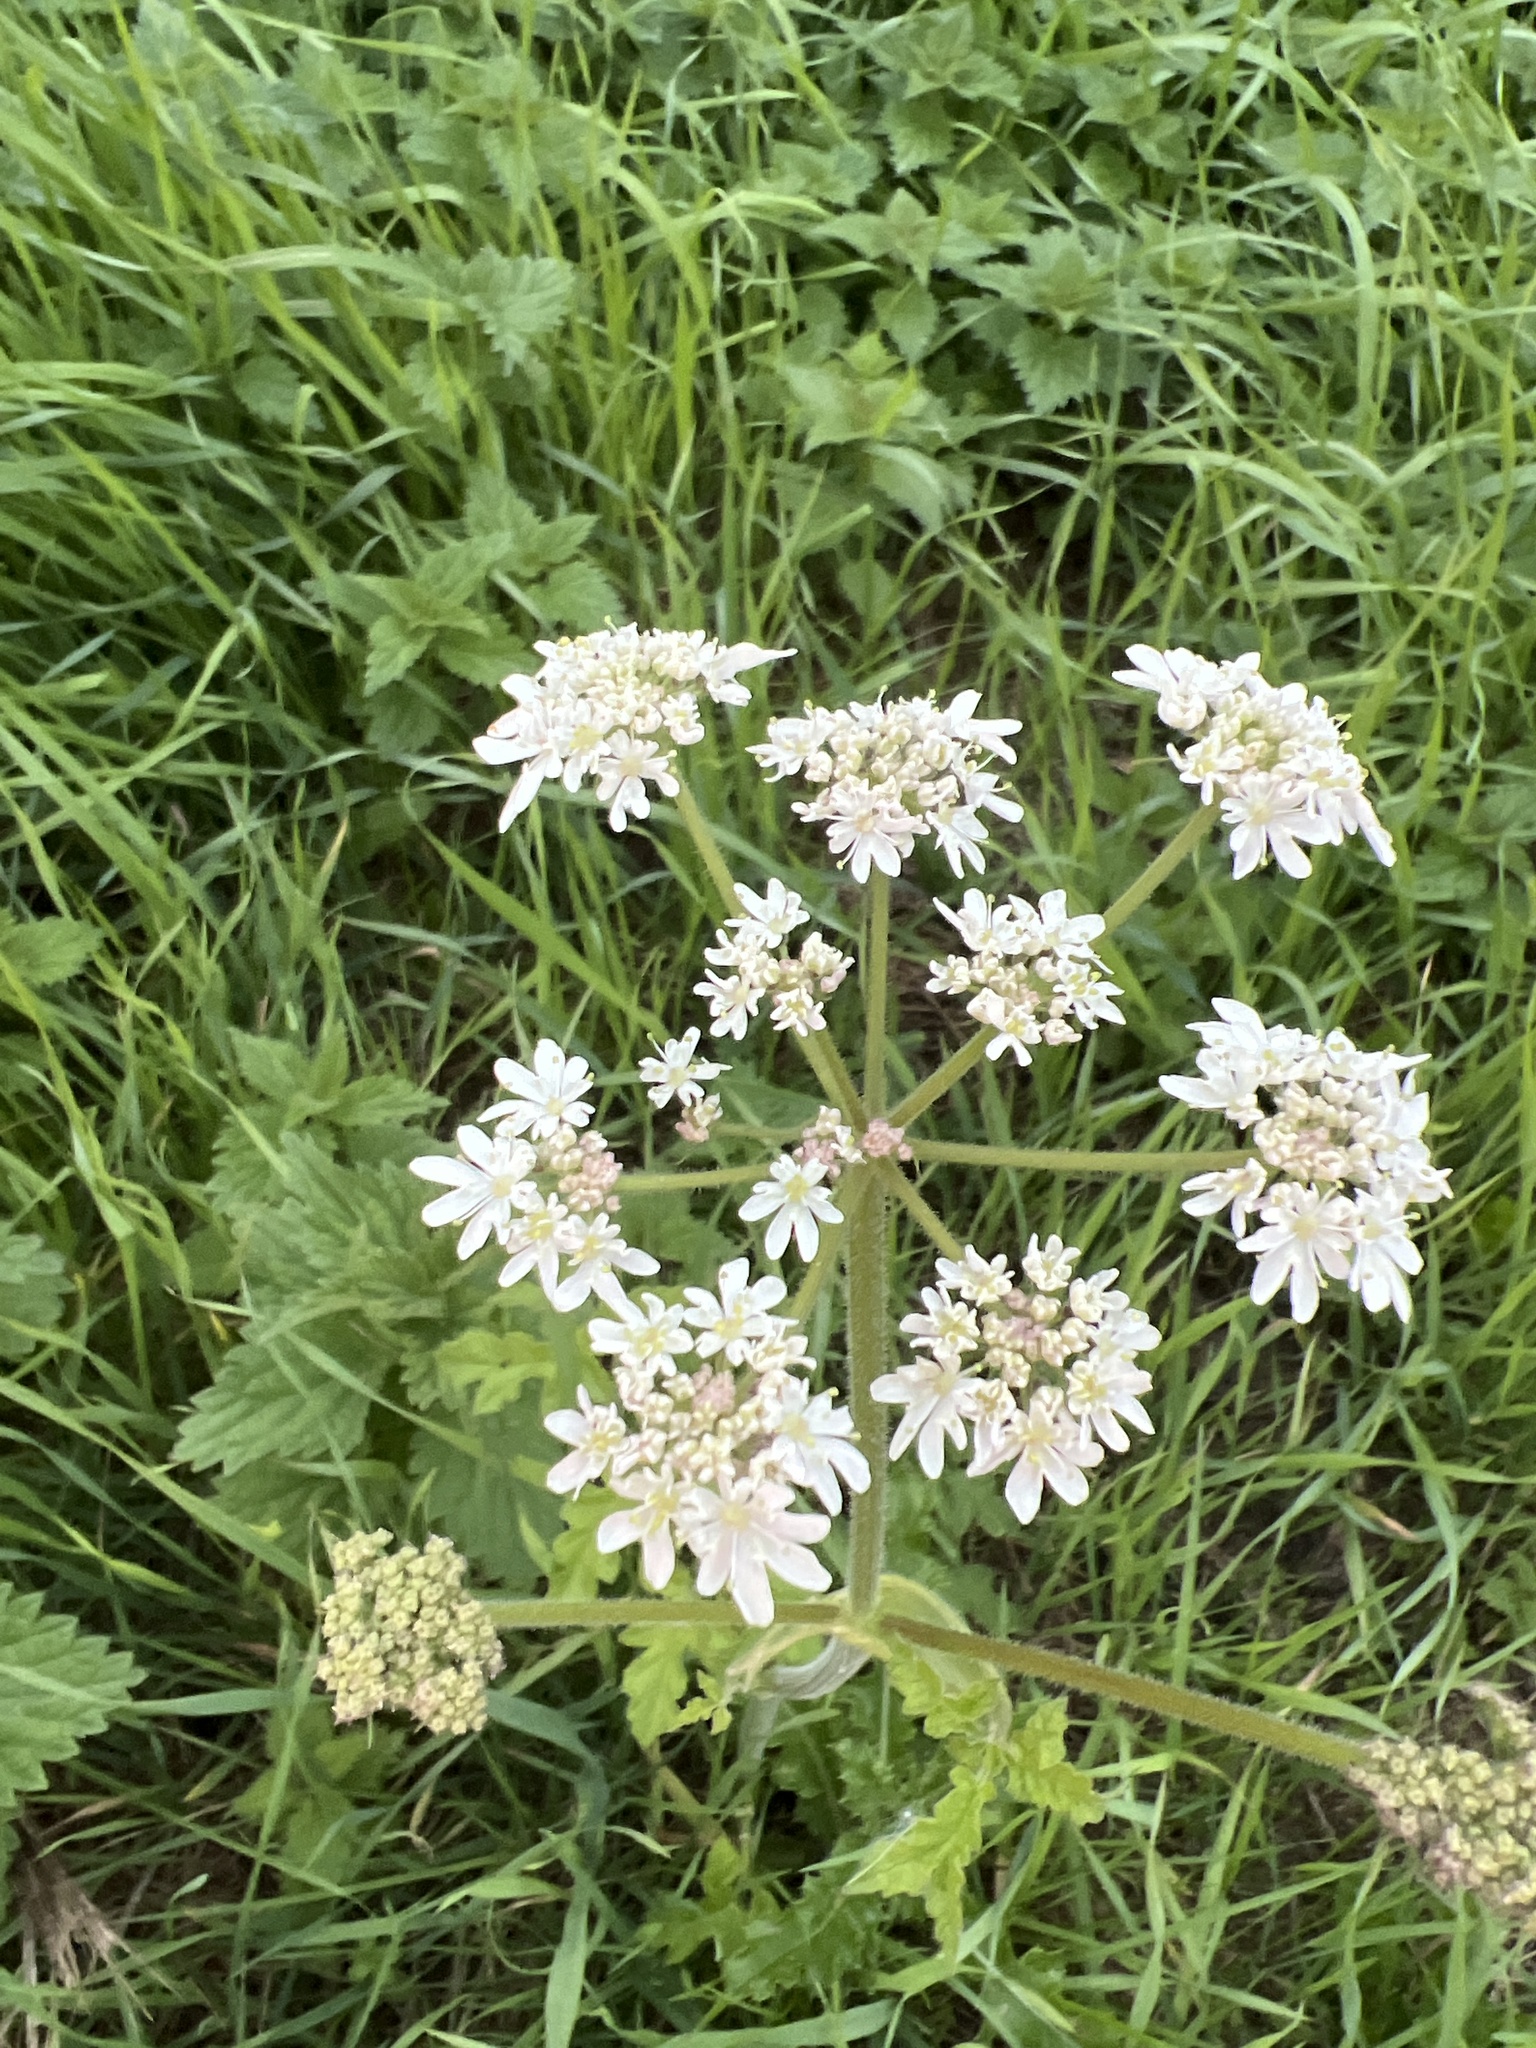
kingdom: Plantae
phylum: Tracheophyta
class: Magnoliopsida
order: Apiales
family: Apiaceae
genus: Heracleum
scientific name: Heracleum sphondylium
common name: Hogweed
